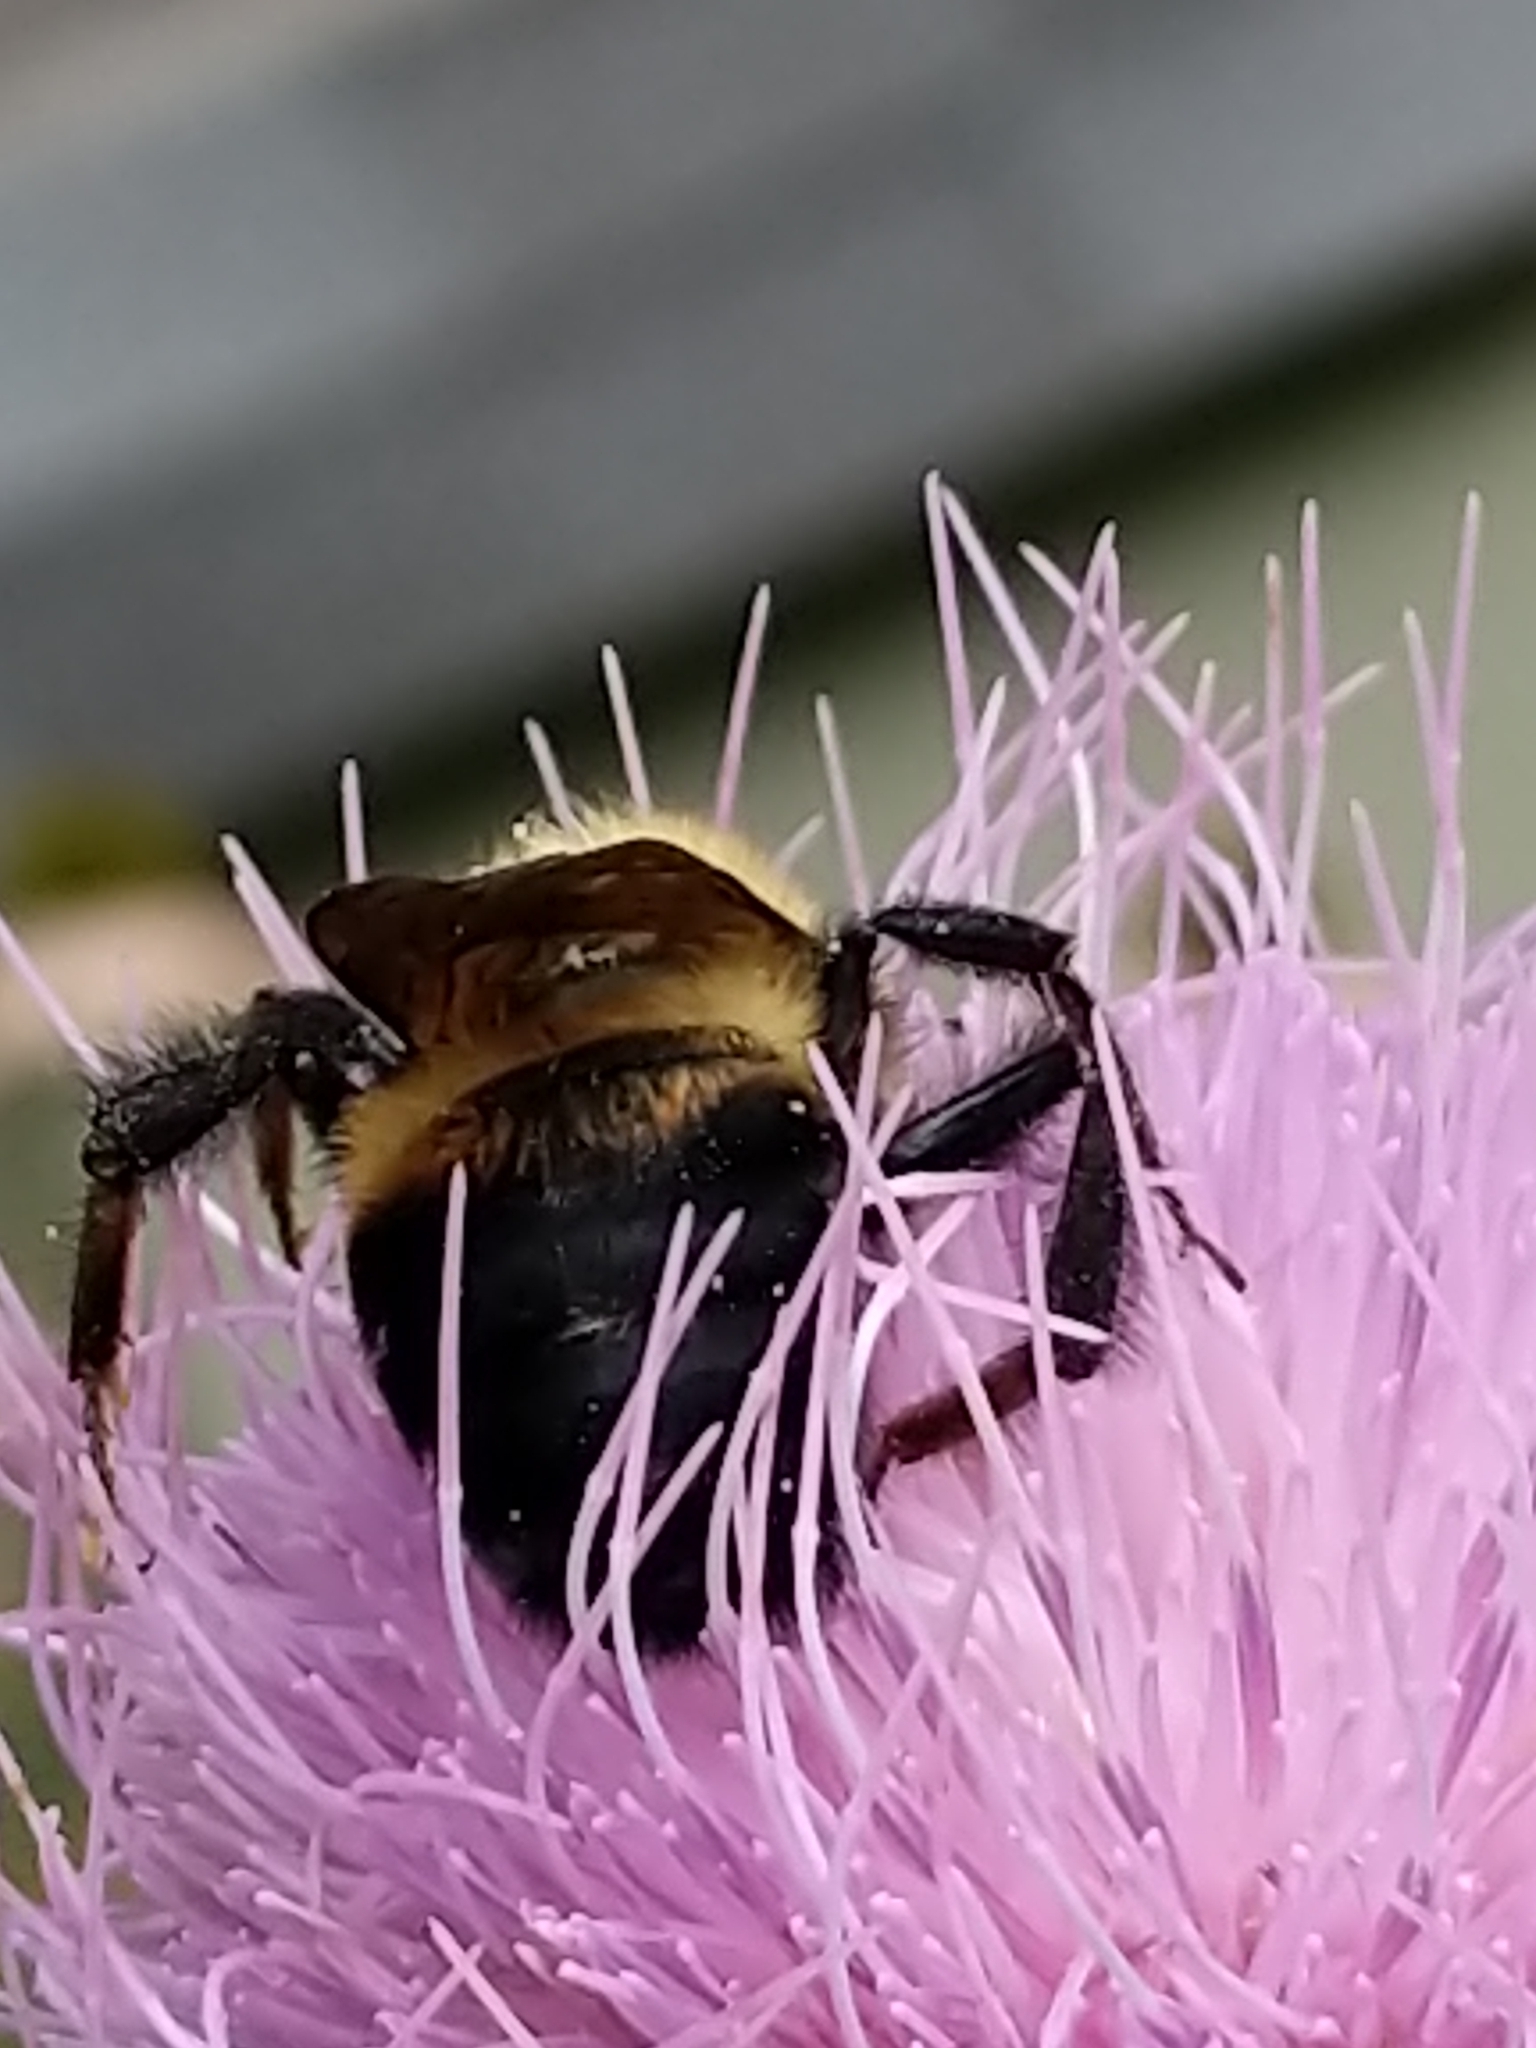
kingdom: Animalia
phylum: Arthropoda
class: Insecta
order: Hymenoptera
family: Apidae
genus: Bombus
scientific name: Bombus griseocollis
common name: Brown-belted bumble bee
